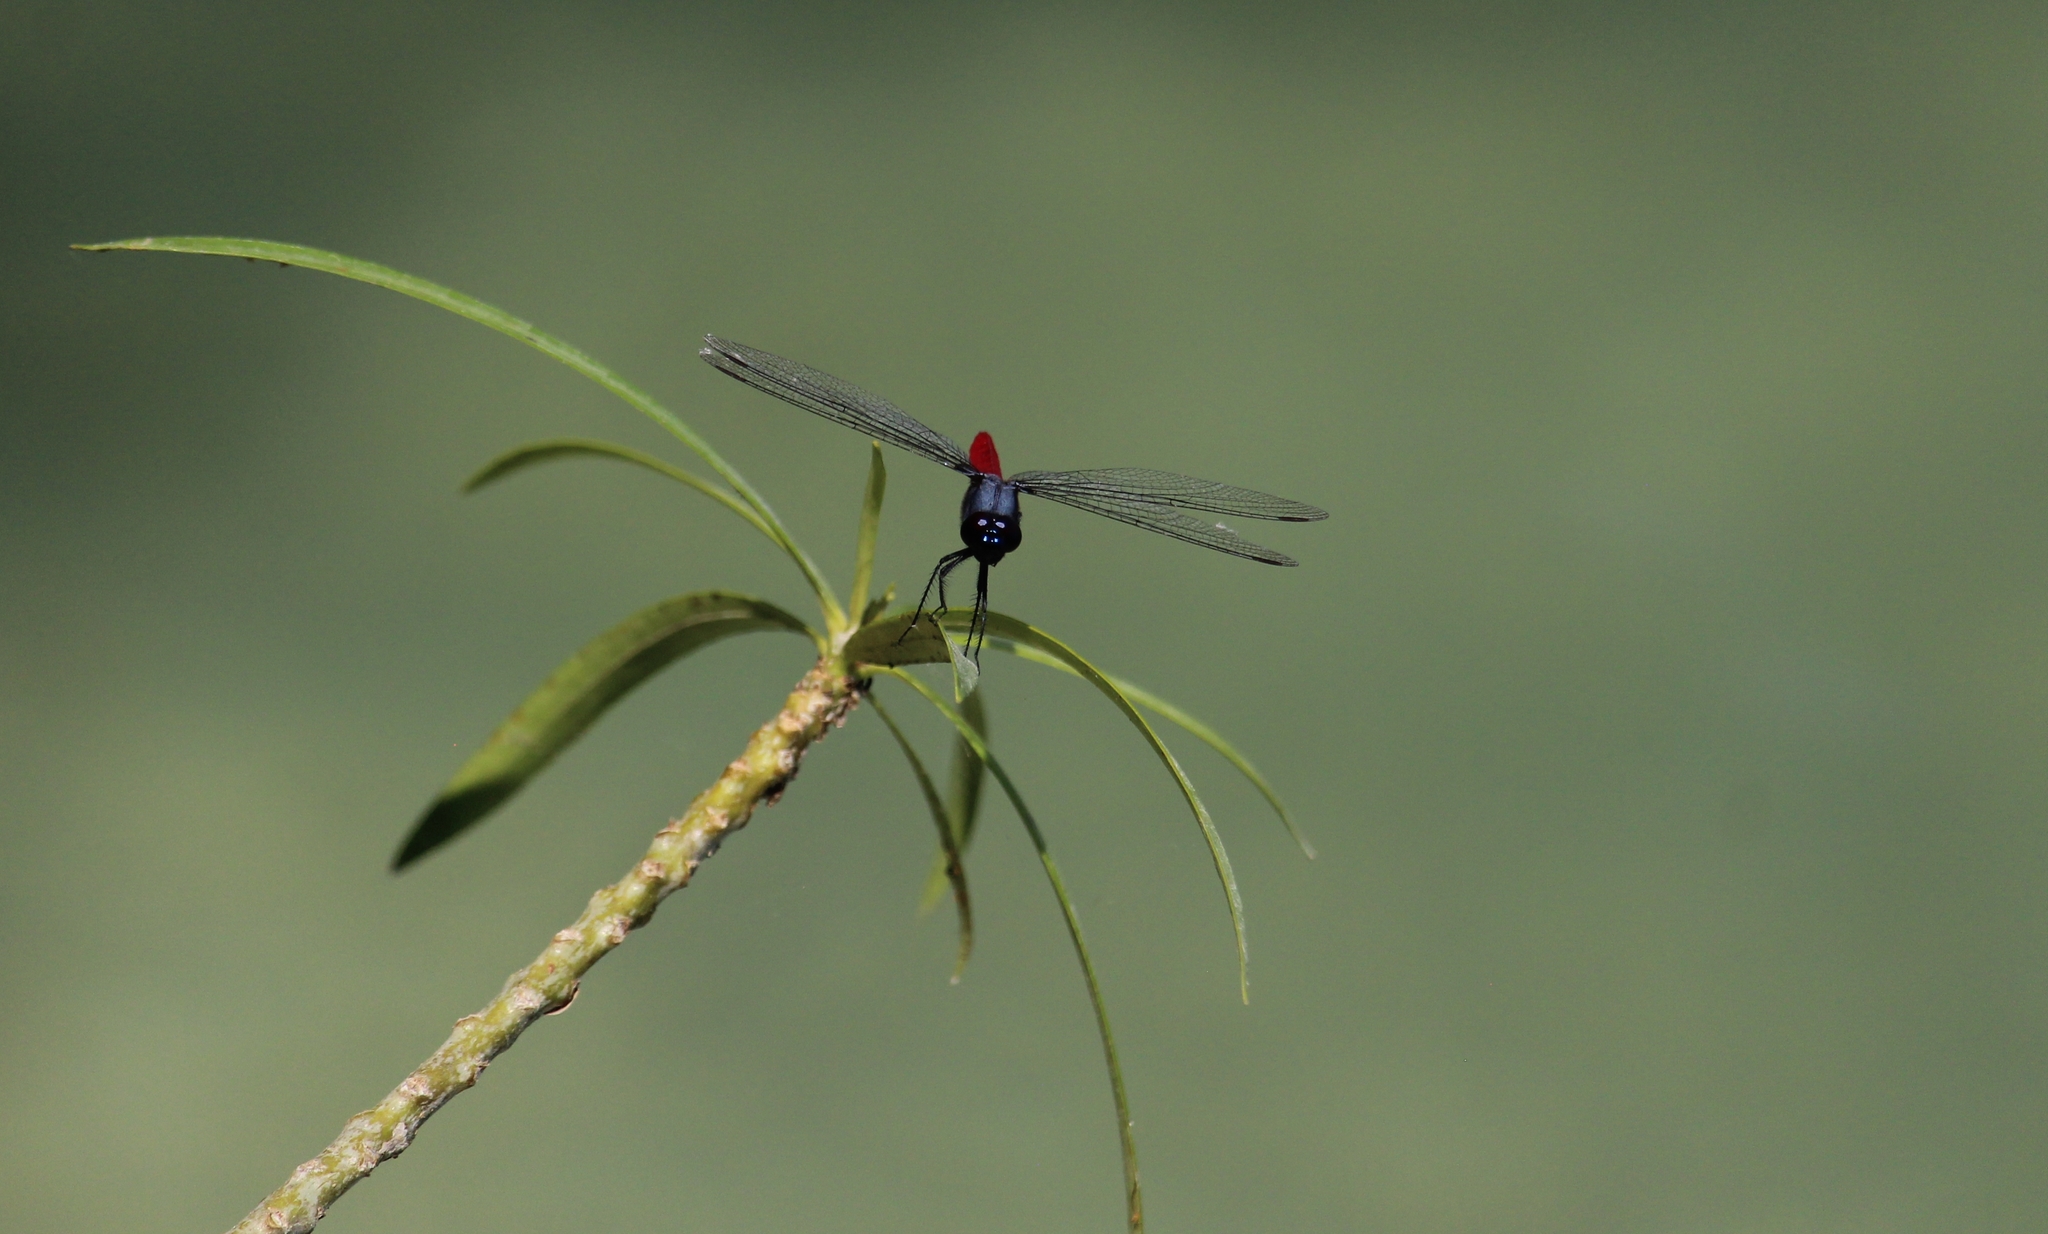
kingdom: Animalia
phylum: Arthropoda
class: Insecta
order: Odonata
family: Libellulidae
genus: Planiplax
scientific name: Planiplax sanguiniventris
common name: Mexican scarlet-tail
